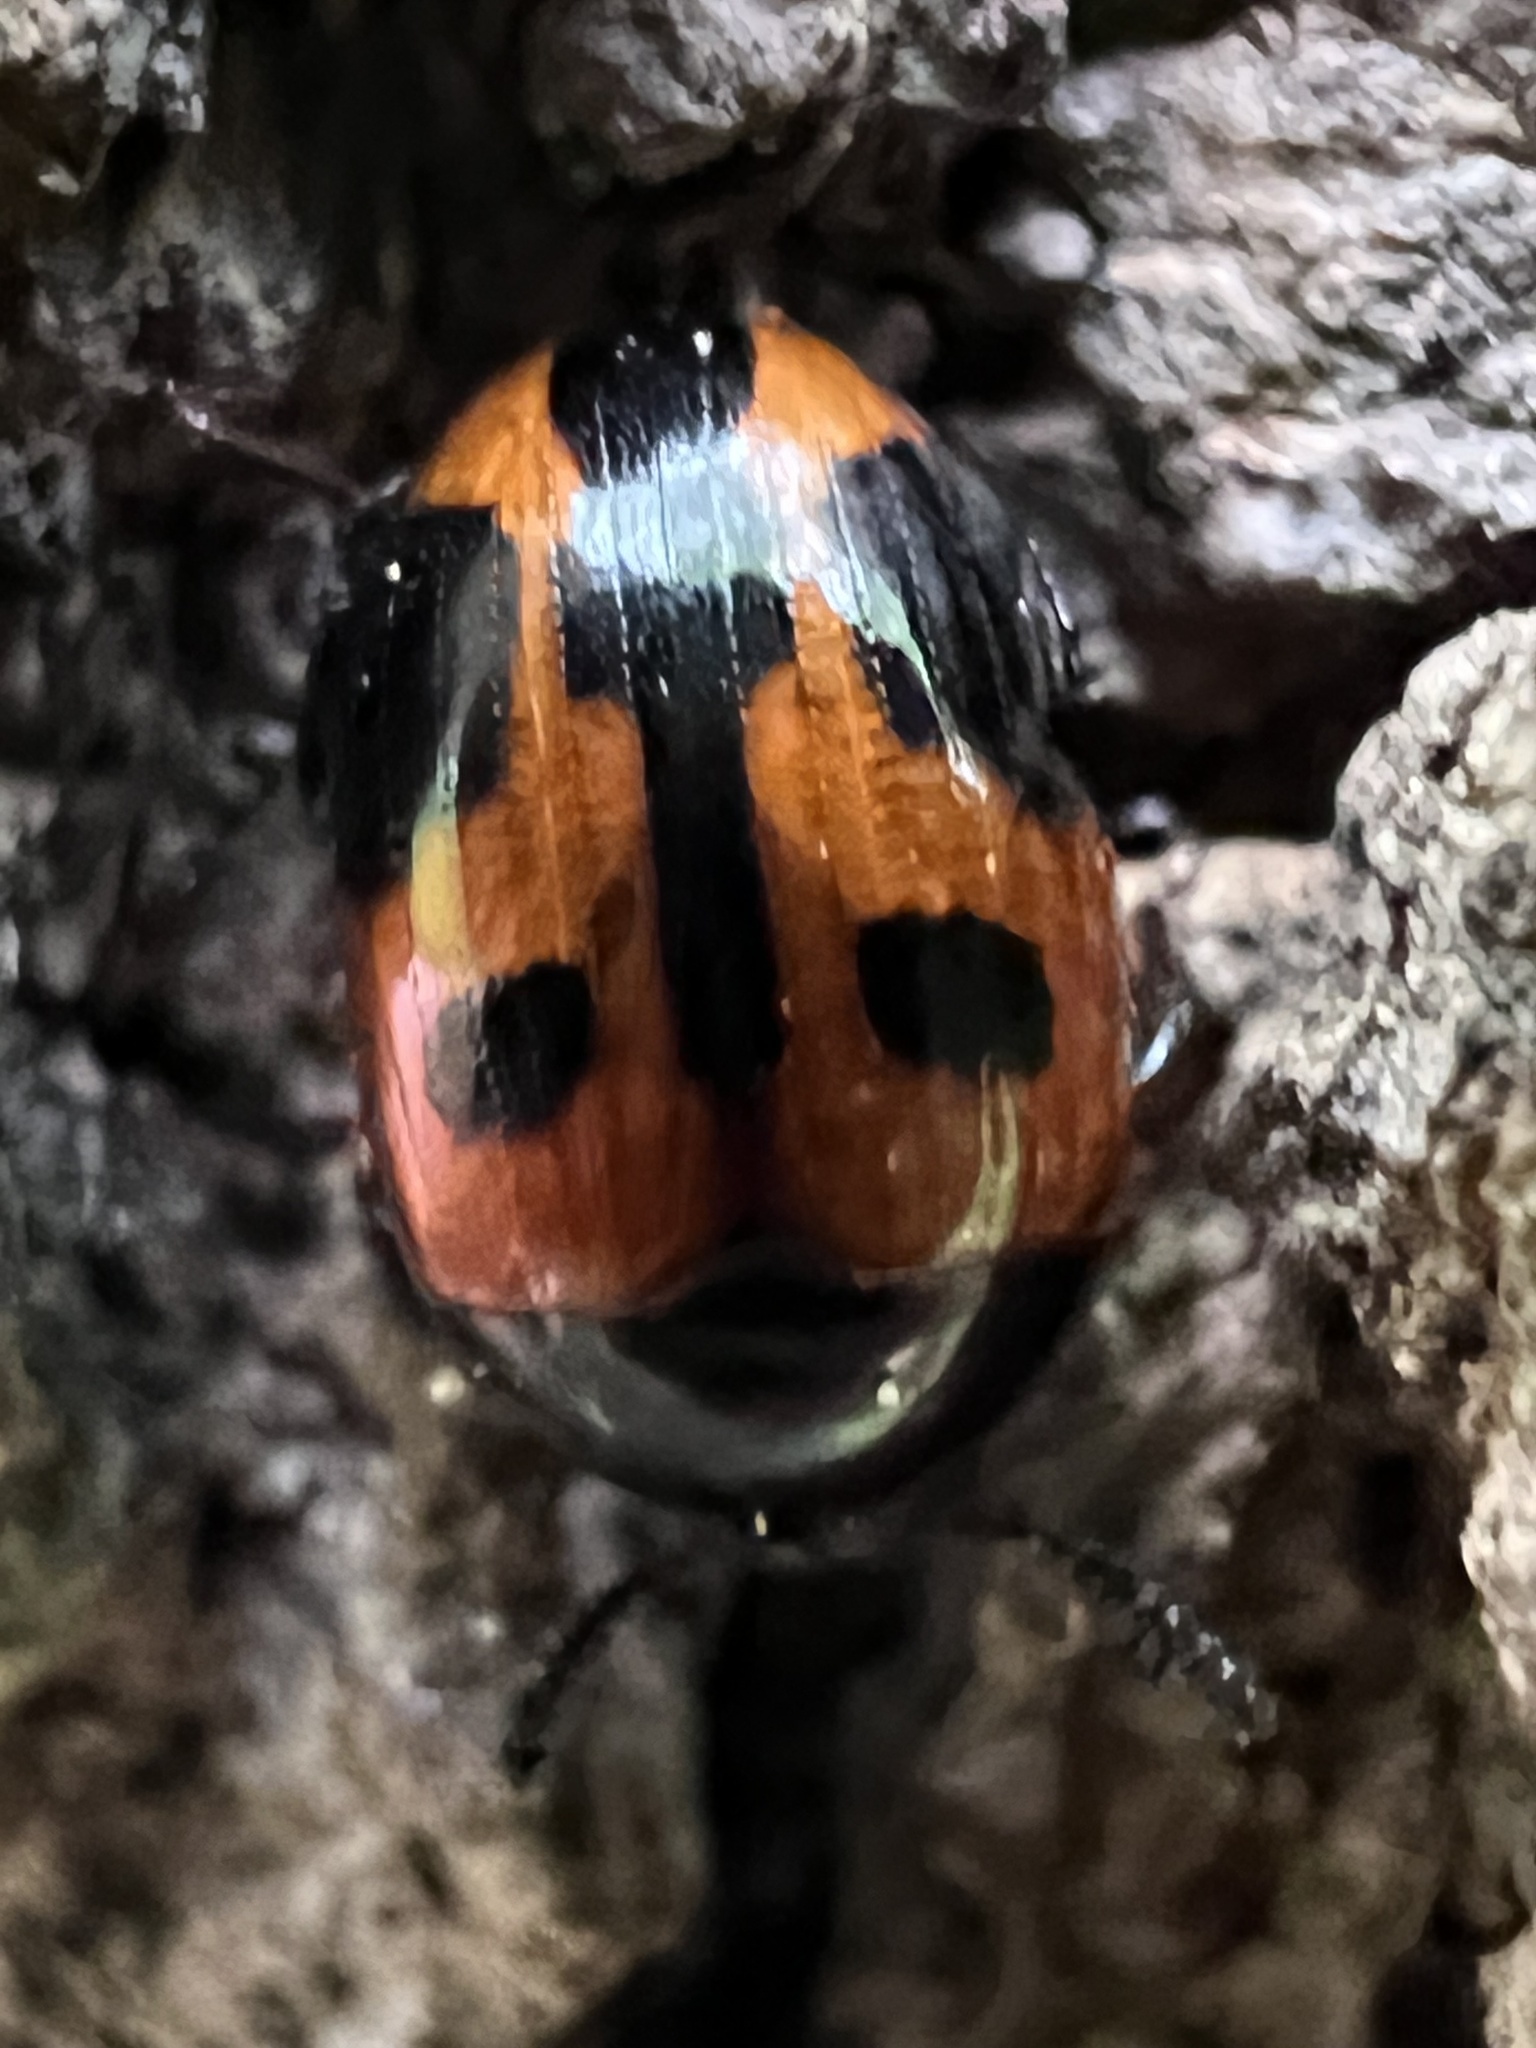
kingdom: Animalia
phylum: Arthropoda
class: Insecta
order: Coleoptera
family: Tenebrionidae
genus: Diaperis
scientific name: Diaperis maculata
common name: Darkling beetle
